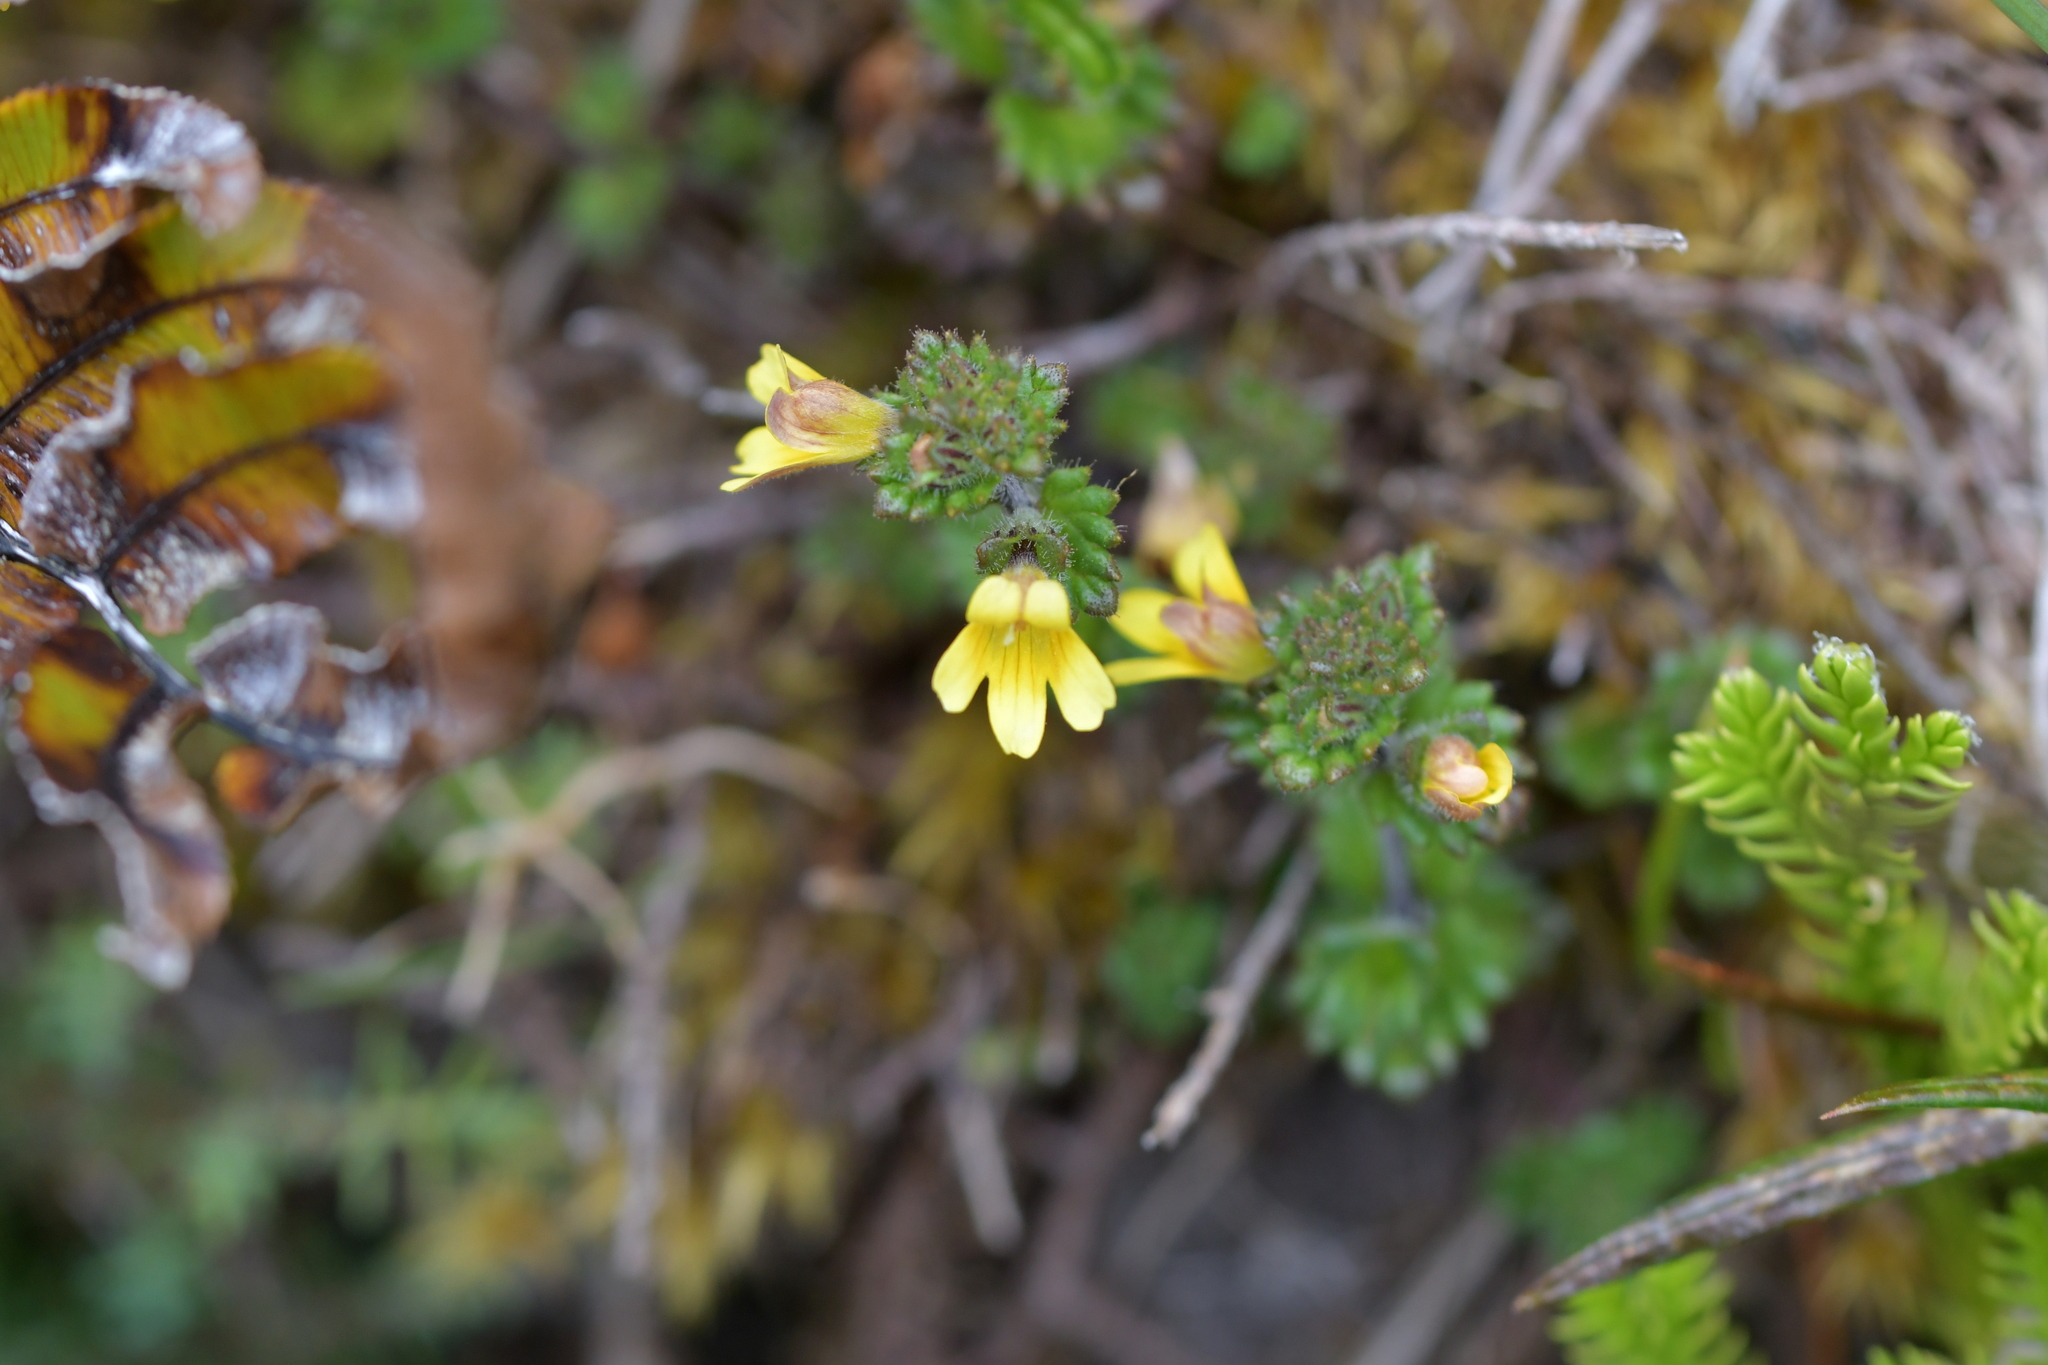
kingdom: Plantae
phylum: Tracheophyta
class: Magnoliopsida
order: Lamiales
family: Orobanchaceae
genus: Euphrasia
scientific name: Euphrasia cockayneana
